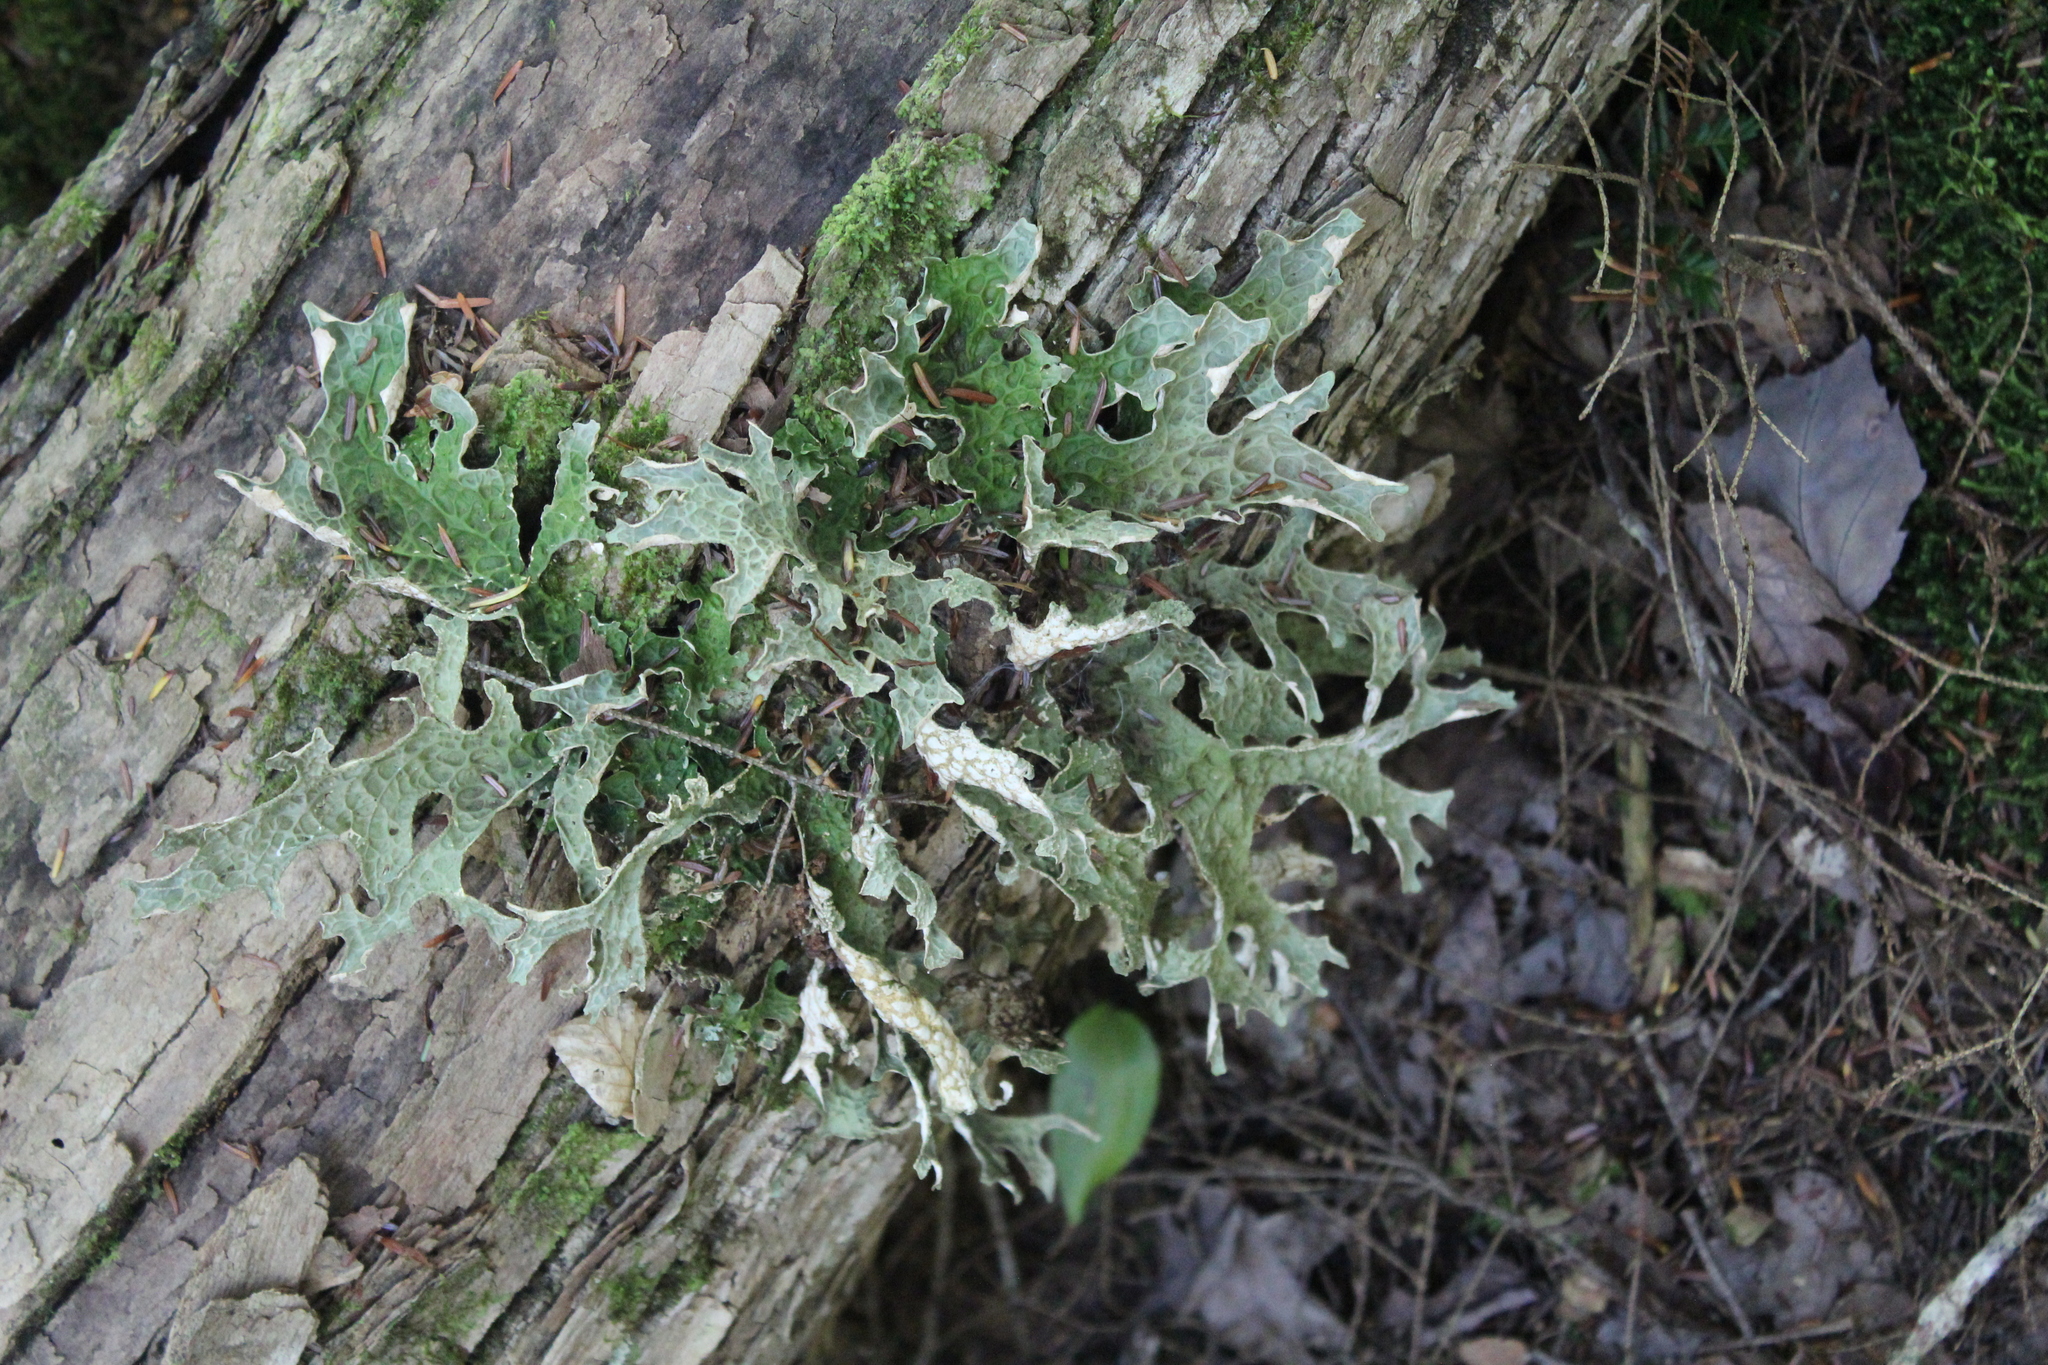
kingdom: Fungi
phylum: Ascomycota
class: Lecanoromycetes
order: Peltigerales
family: Lobariaceae
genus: Lobaria
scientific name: Lobaria pulmonaria
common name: Lungwort
